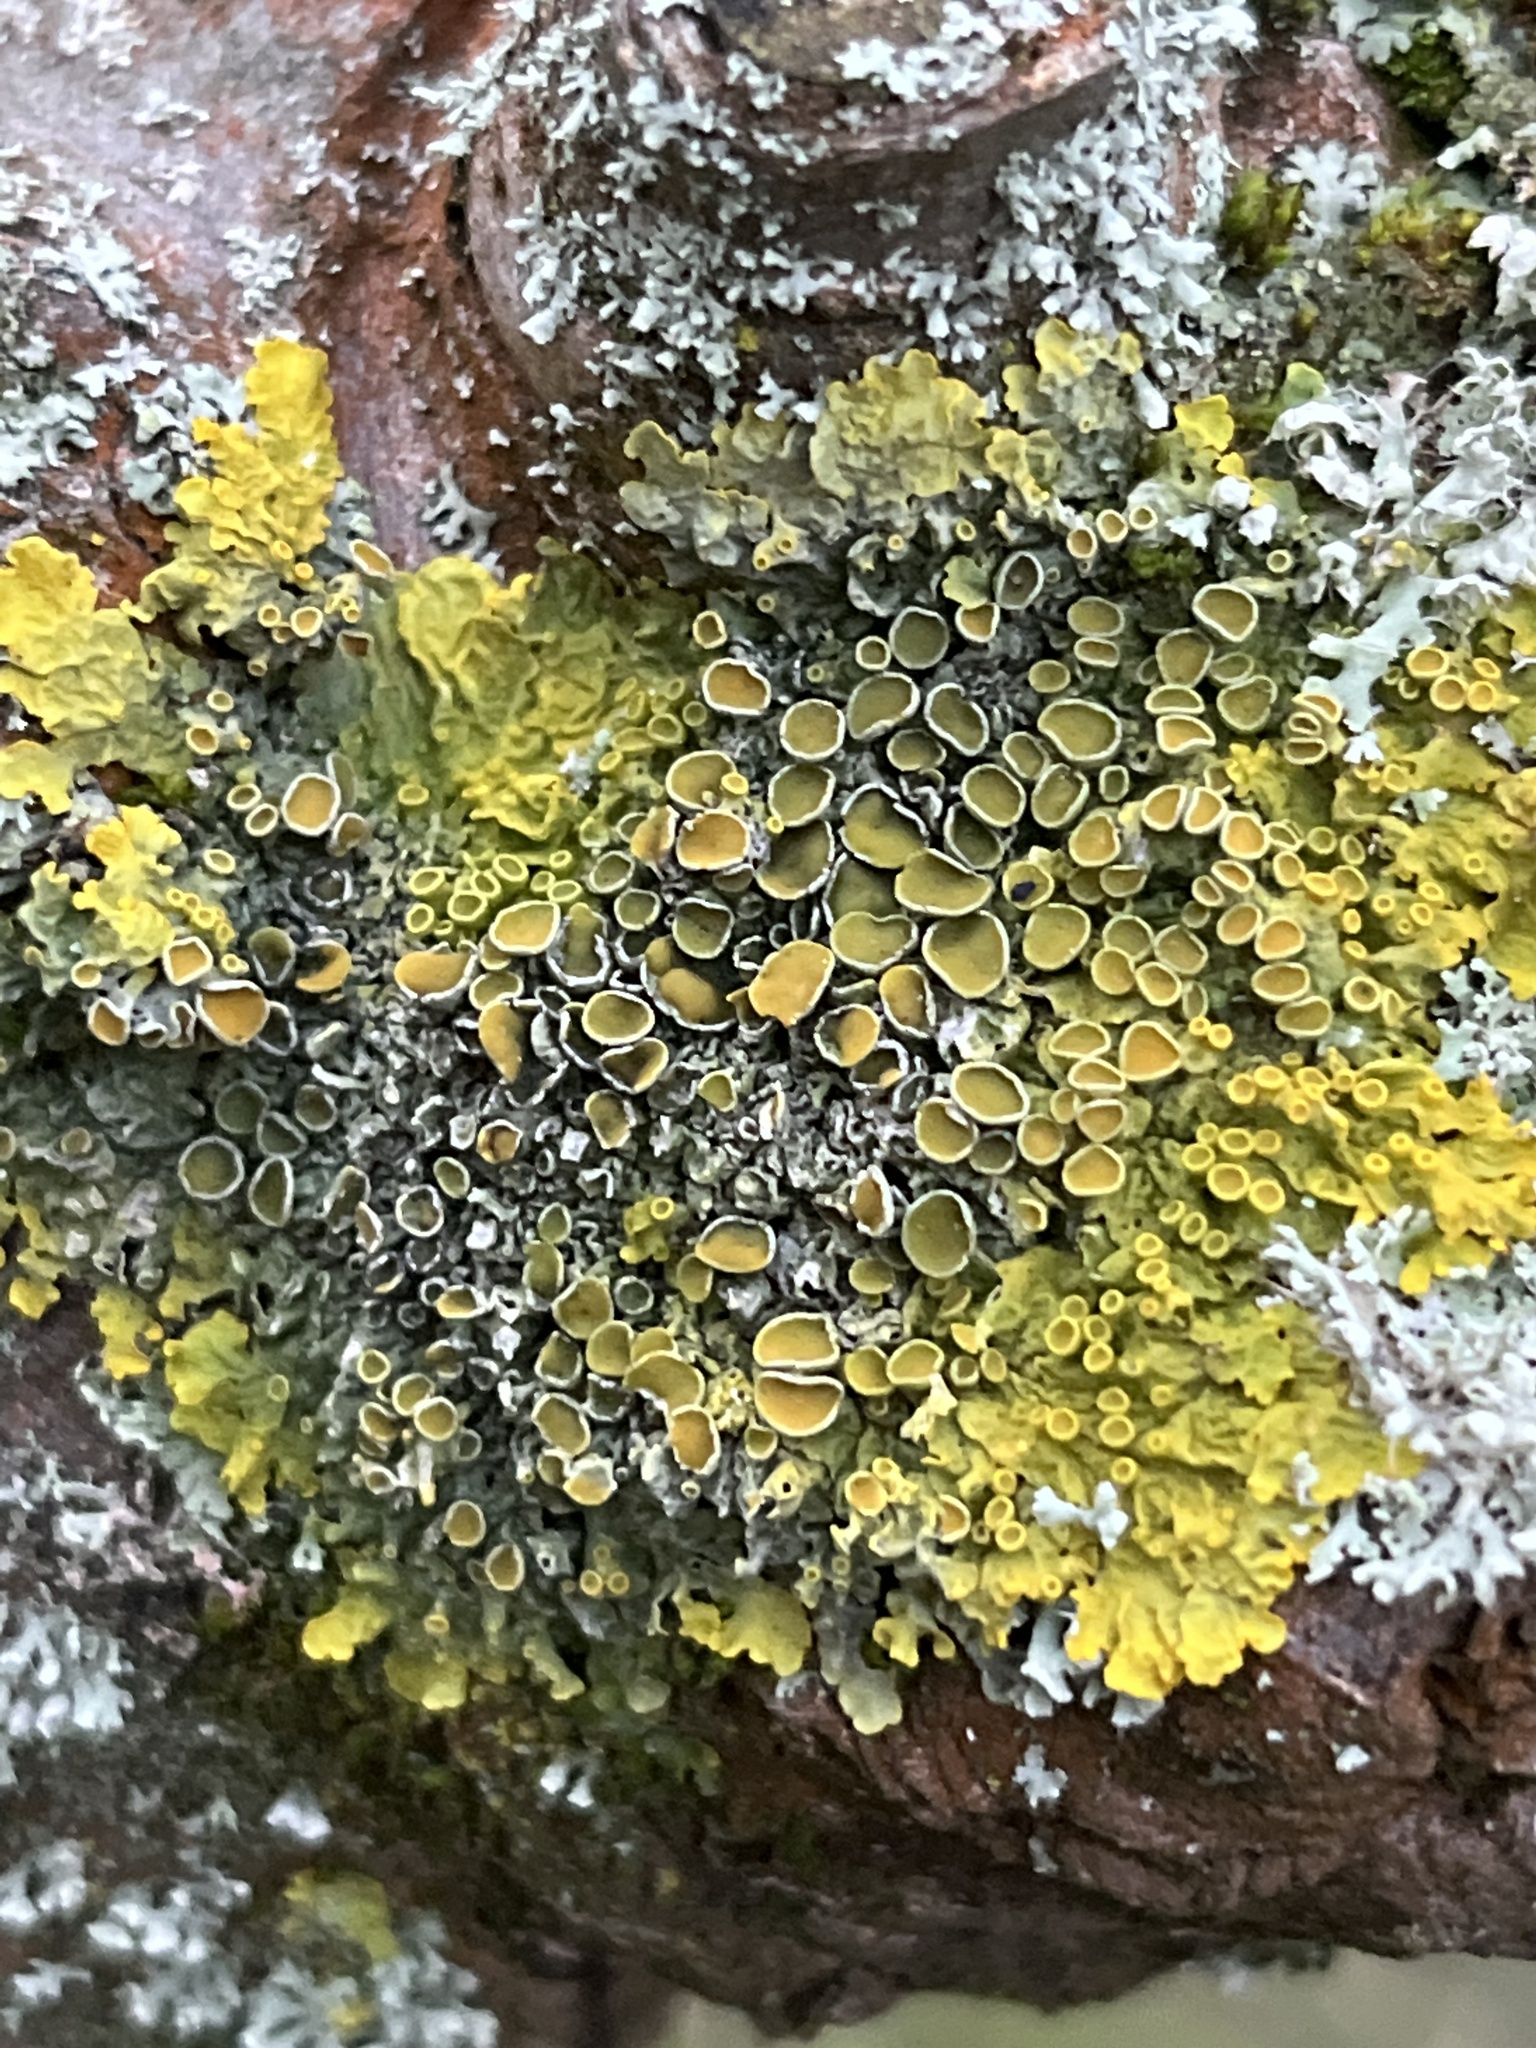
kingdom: Fungi
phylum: Ascomycota
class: Lecanoromycetes
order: Teloschistales
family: Teloschistaceae
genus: Xanthoria
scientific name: Xanthoria parietina
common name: Common orange lichen
